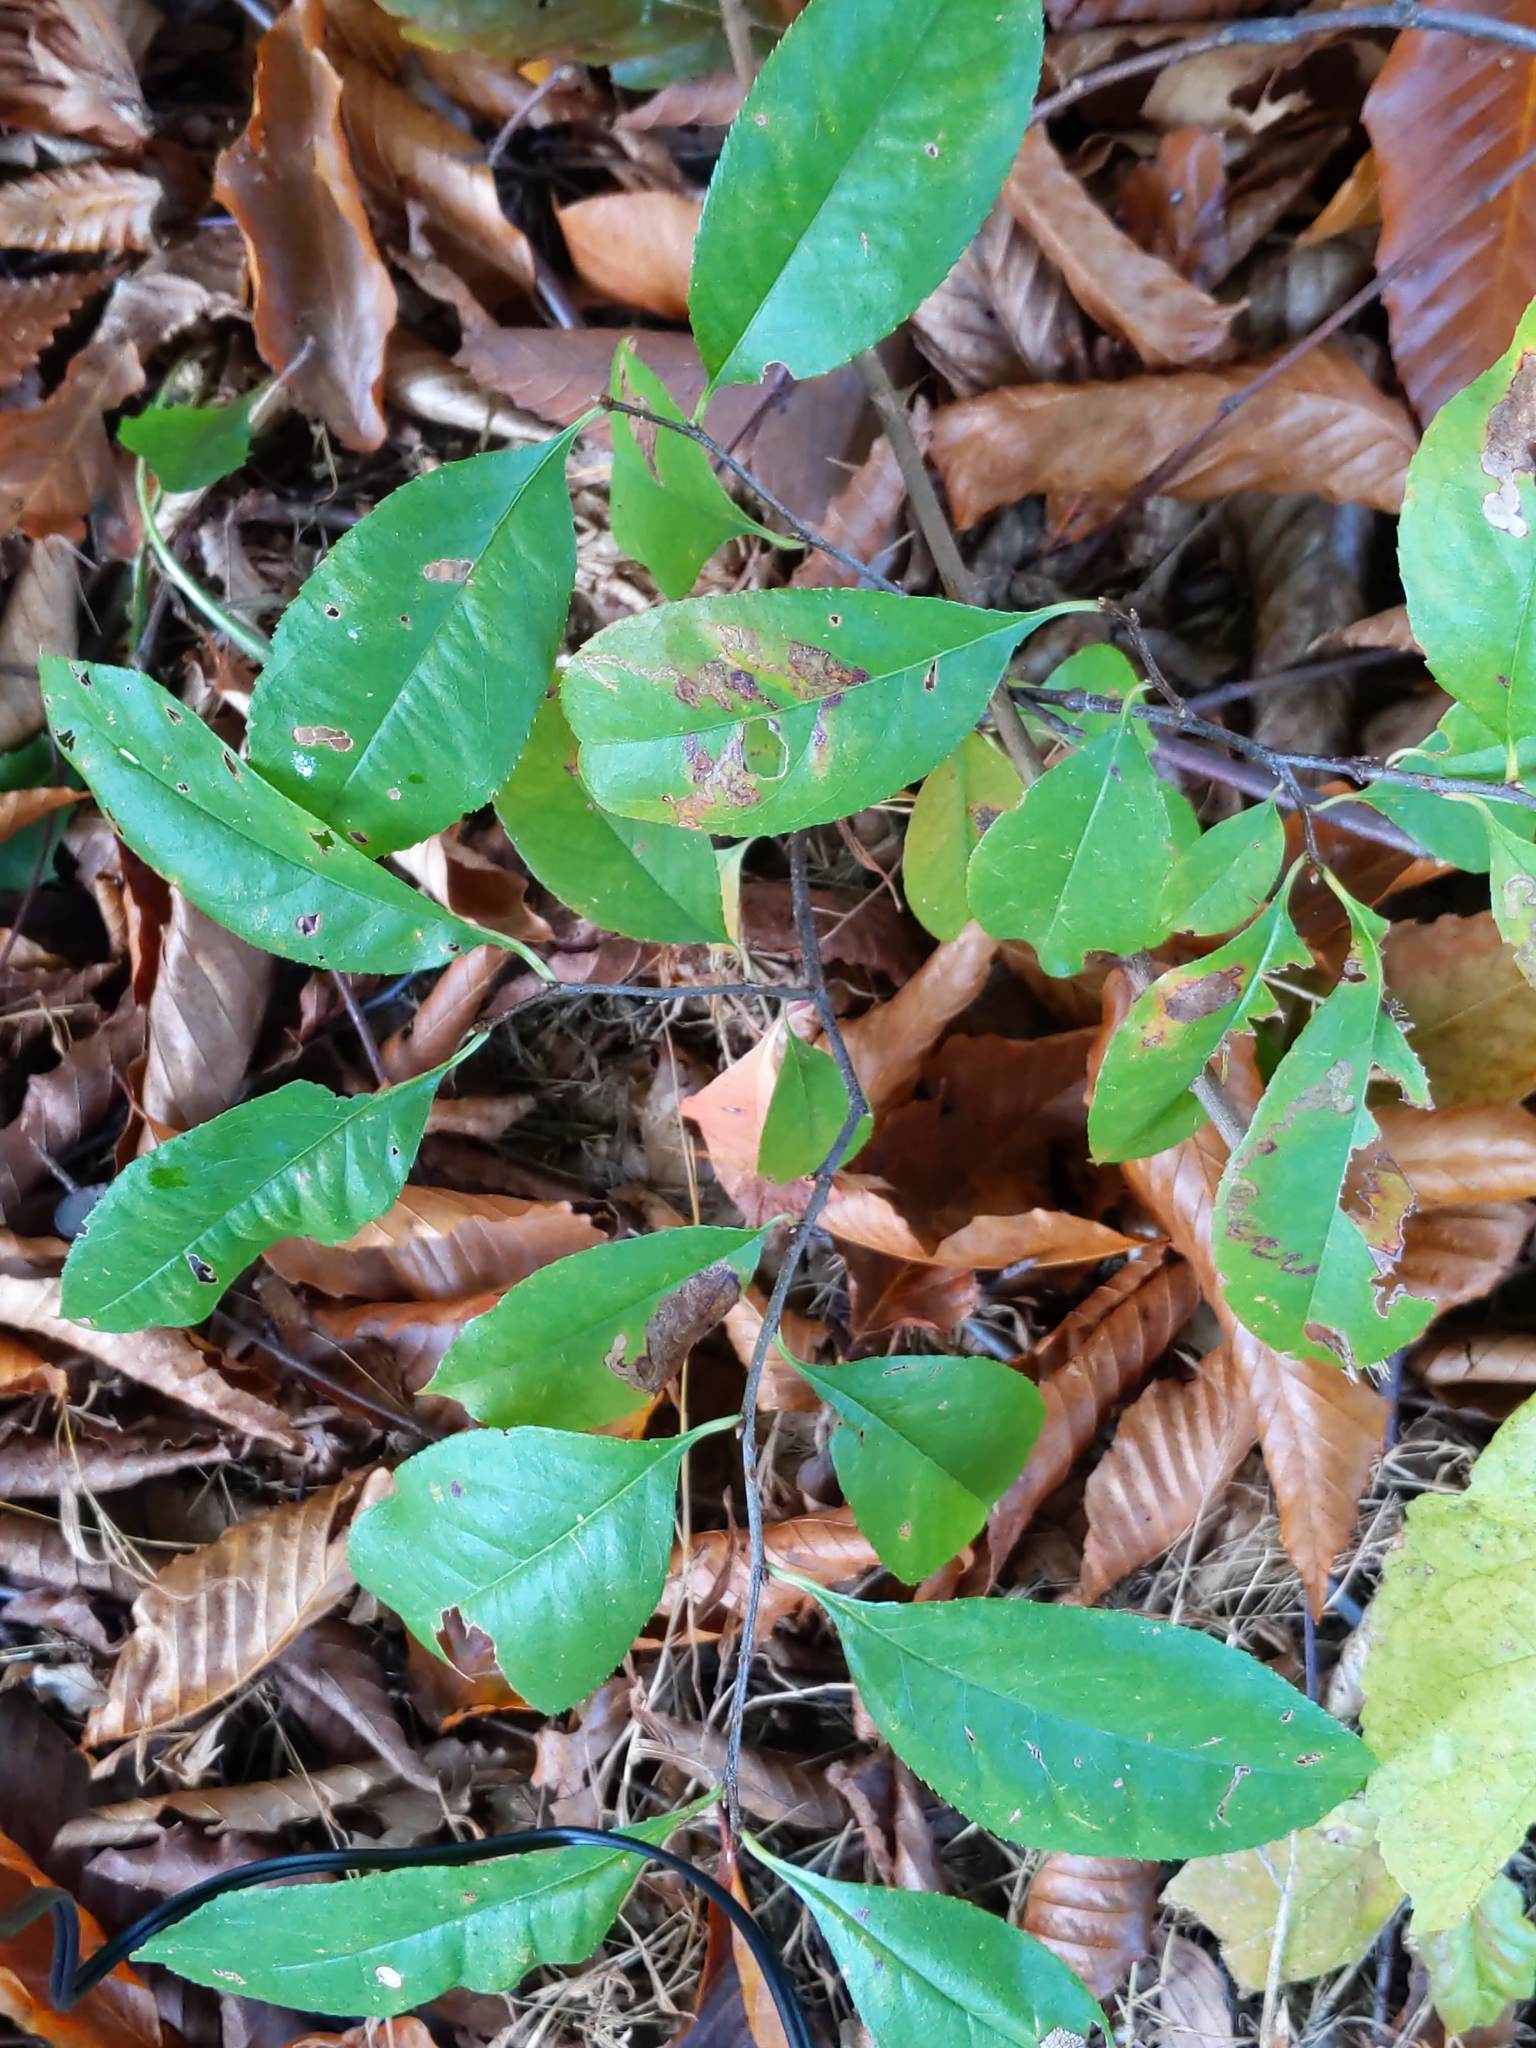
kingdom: Plantae
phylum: Tracheophyta
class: Magnoliopsida
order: Rosales
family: Rosaceae
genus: Prunus
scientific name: Prunus serotina
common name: Black cherry
